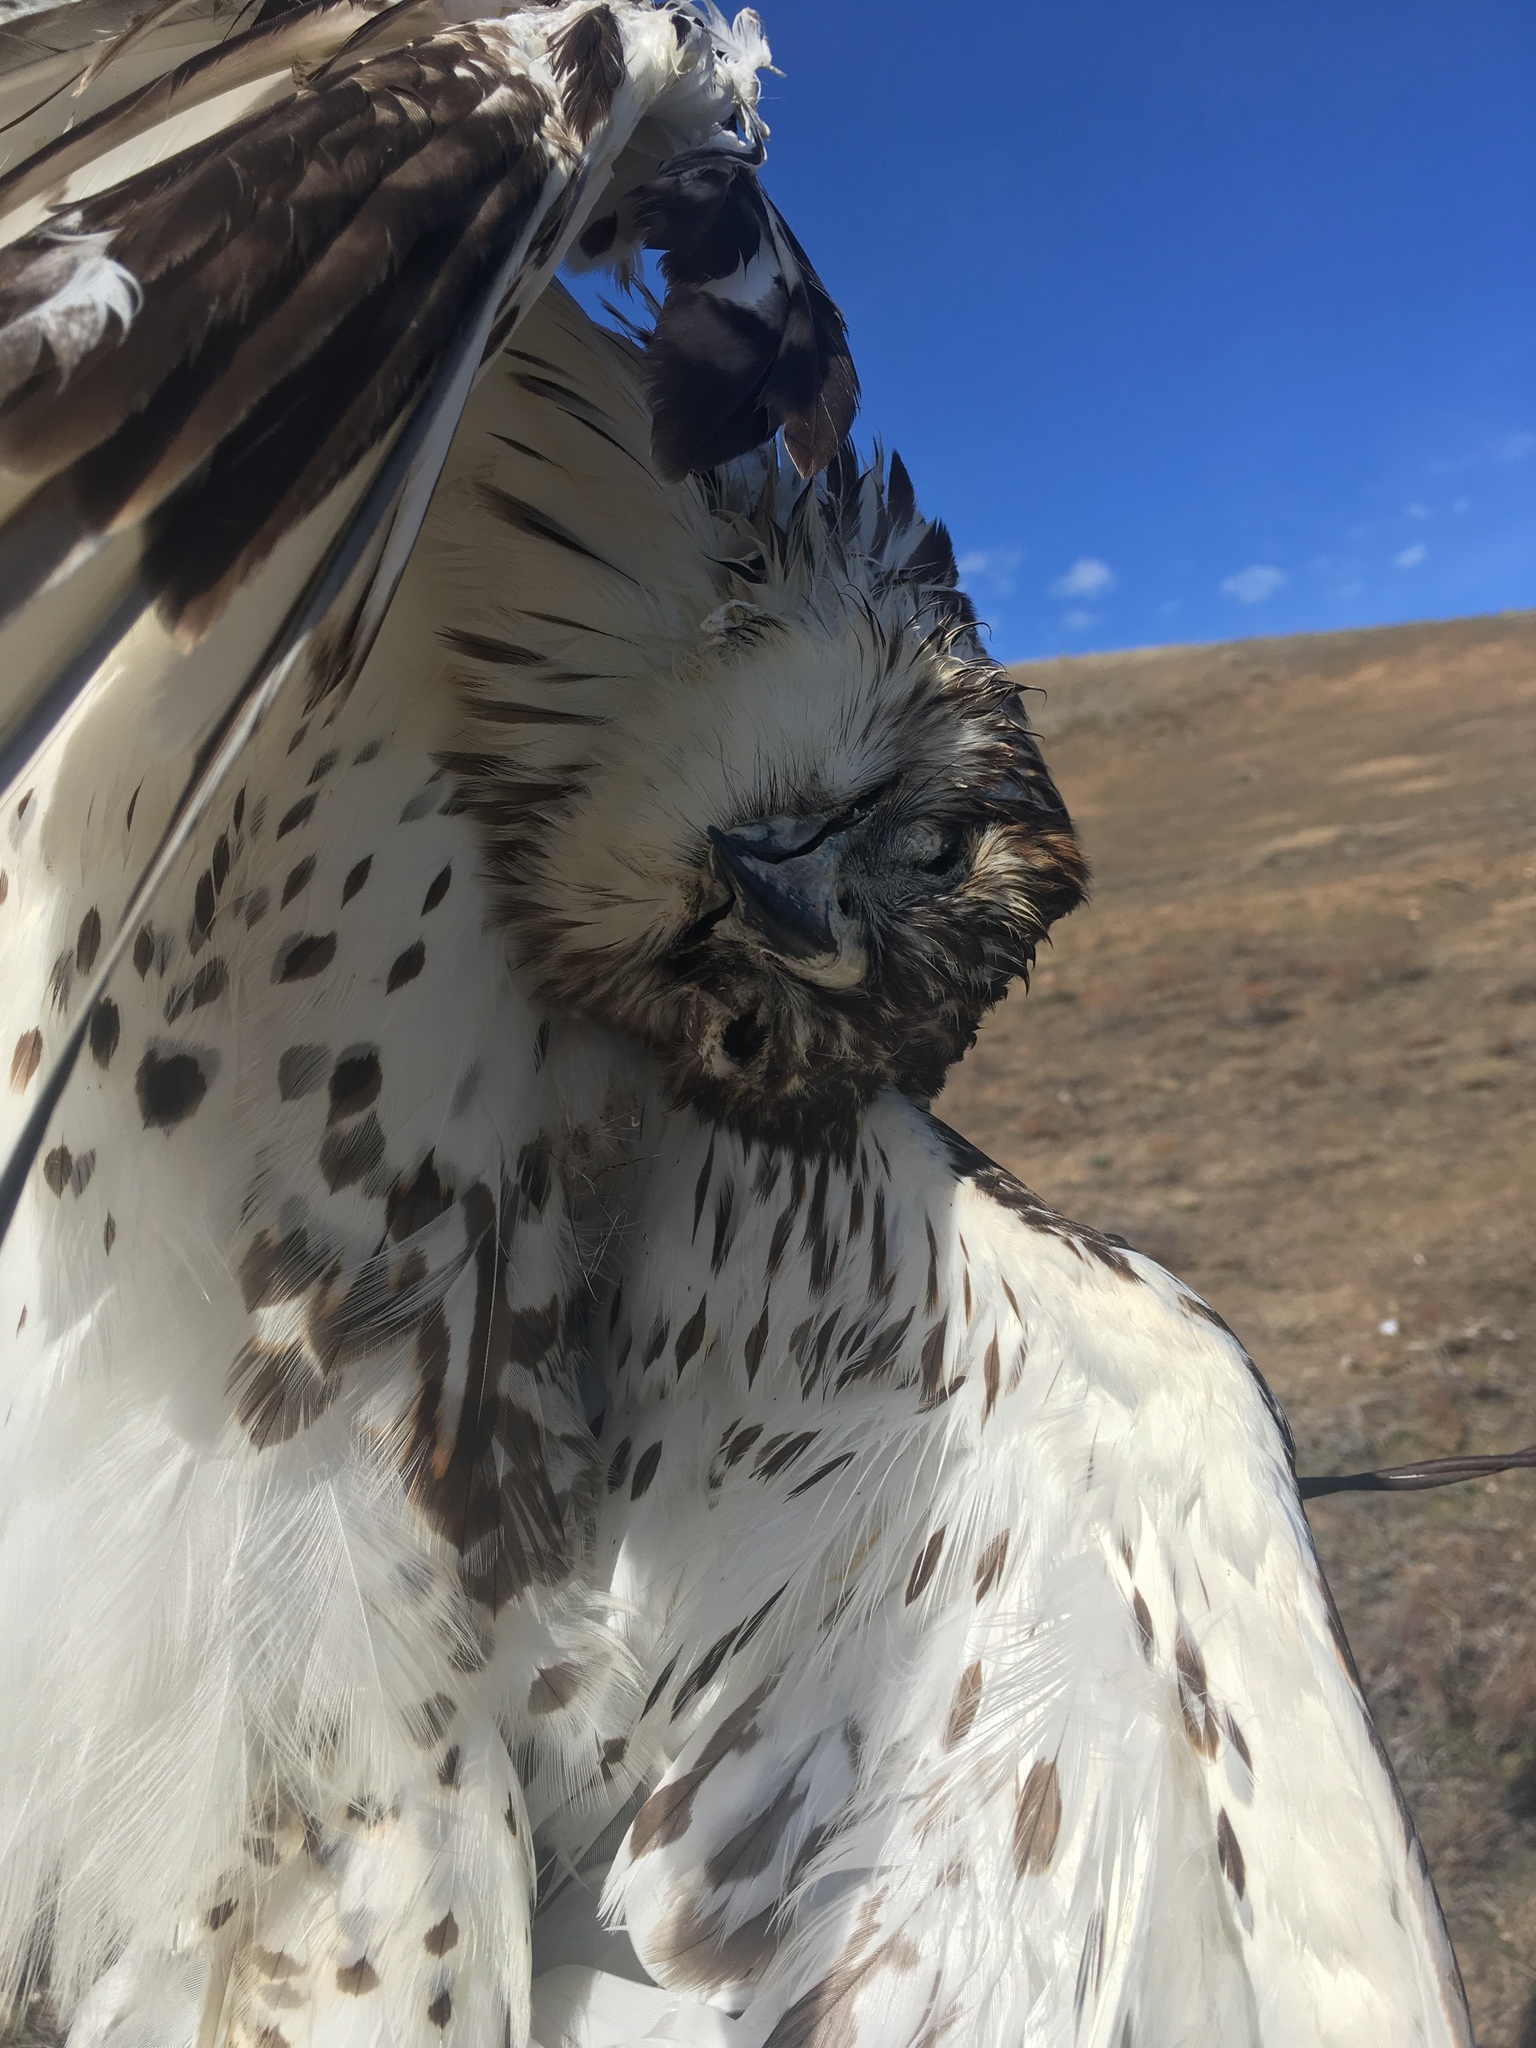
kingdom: Animalia
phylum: Chordata
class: Aves
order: Accipitriformes
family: Accipitridae
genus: Buteo
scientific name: Buteo jamaicensis
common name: Red-tailed hawk
